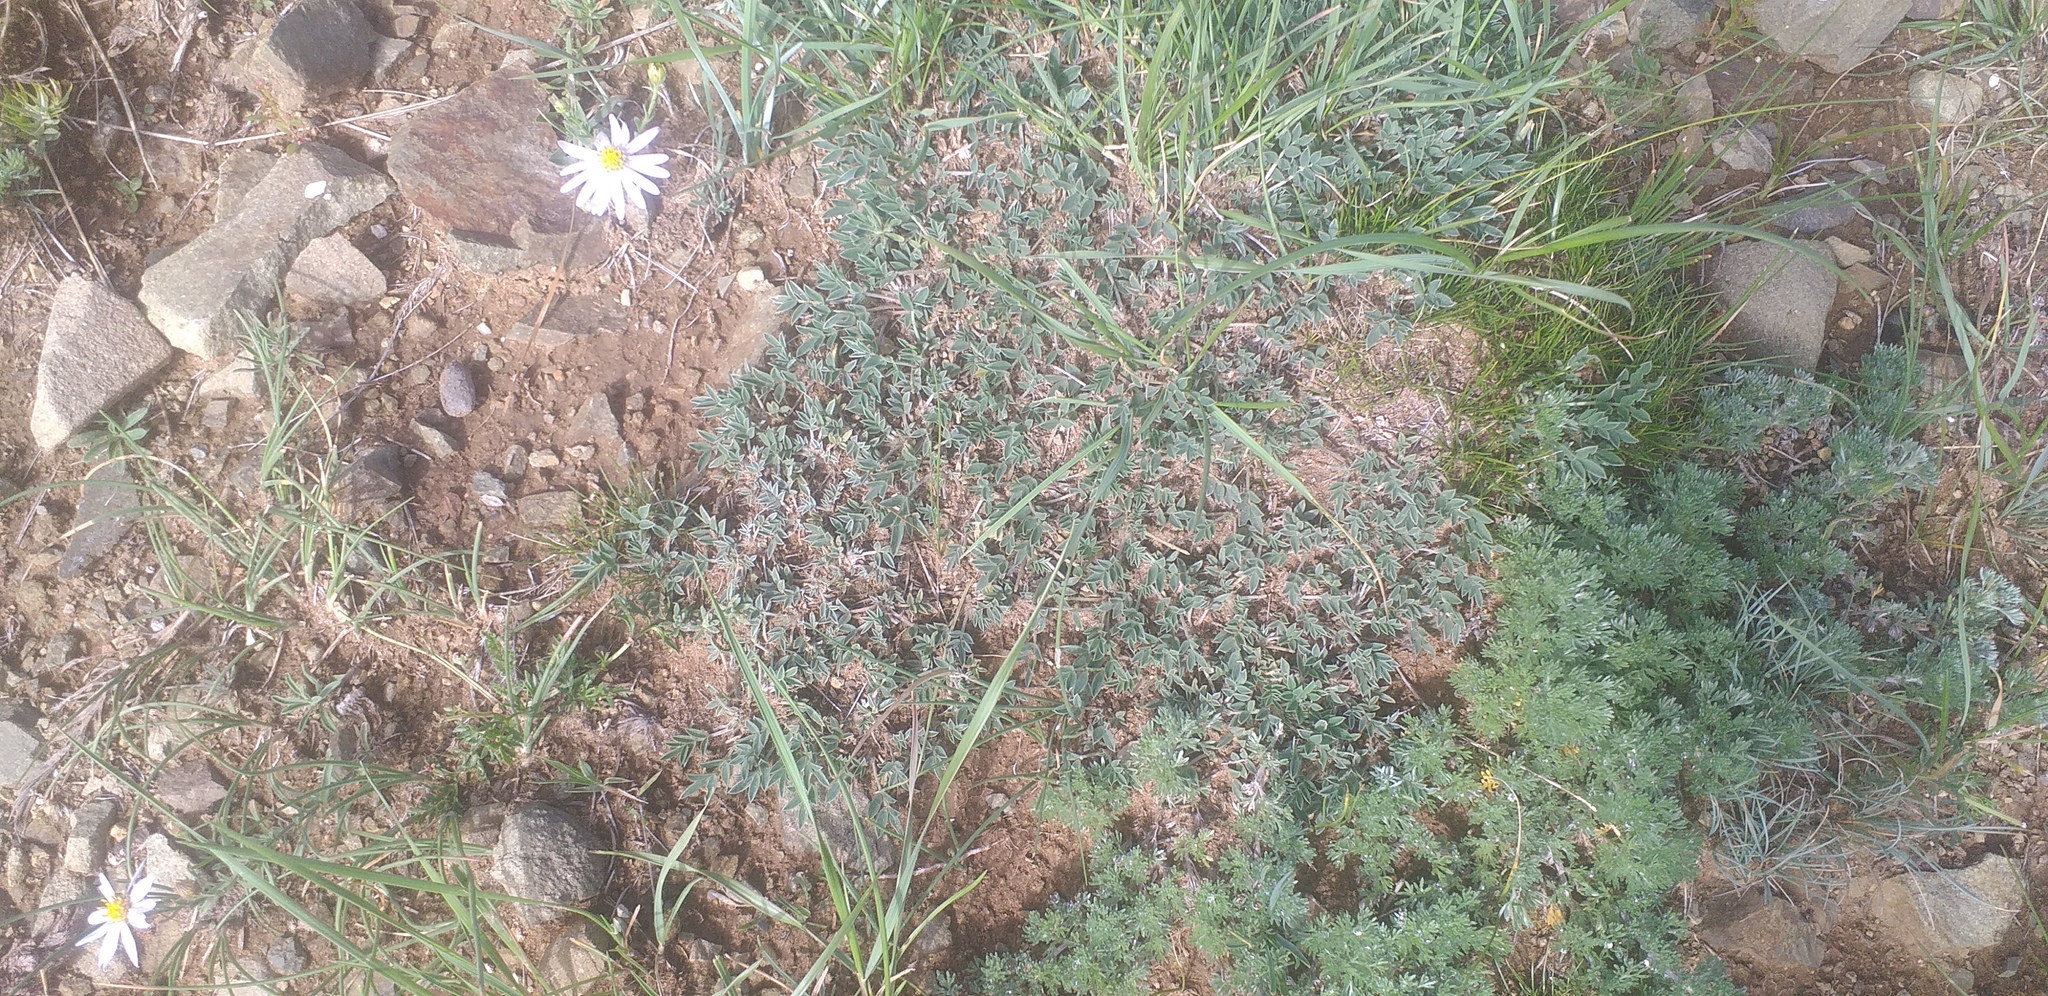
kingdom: Plantae
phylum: Tracheophyta
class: Magnoliopsida
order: Fabales
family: Fabaceae
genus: Astragalus
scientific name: Astragalus galactites
